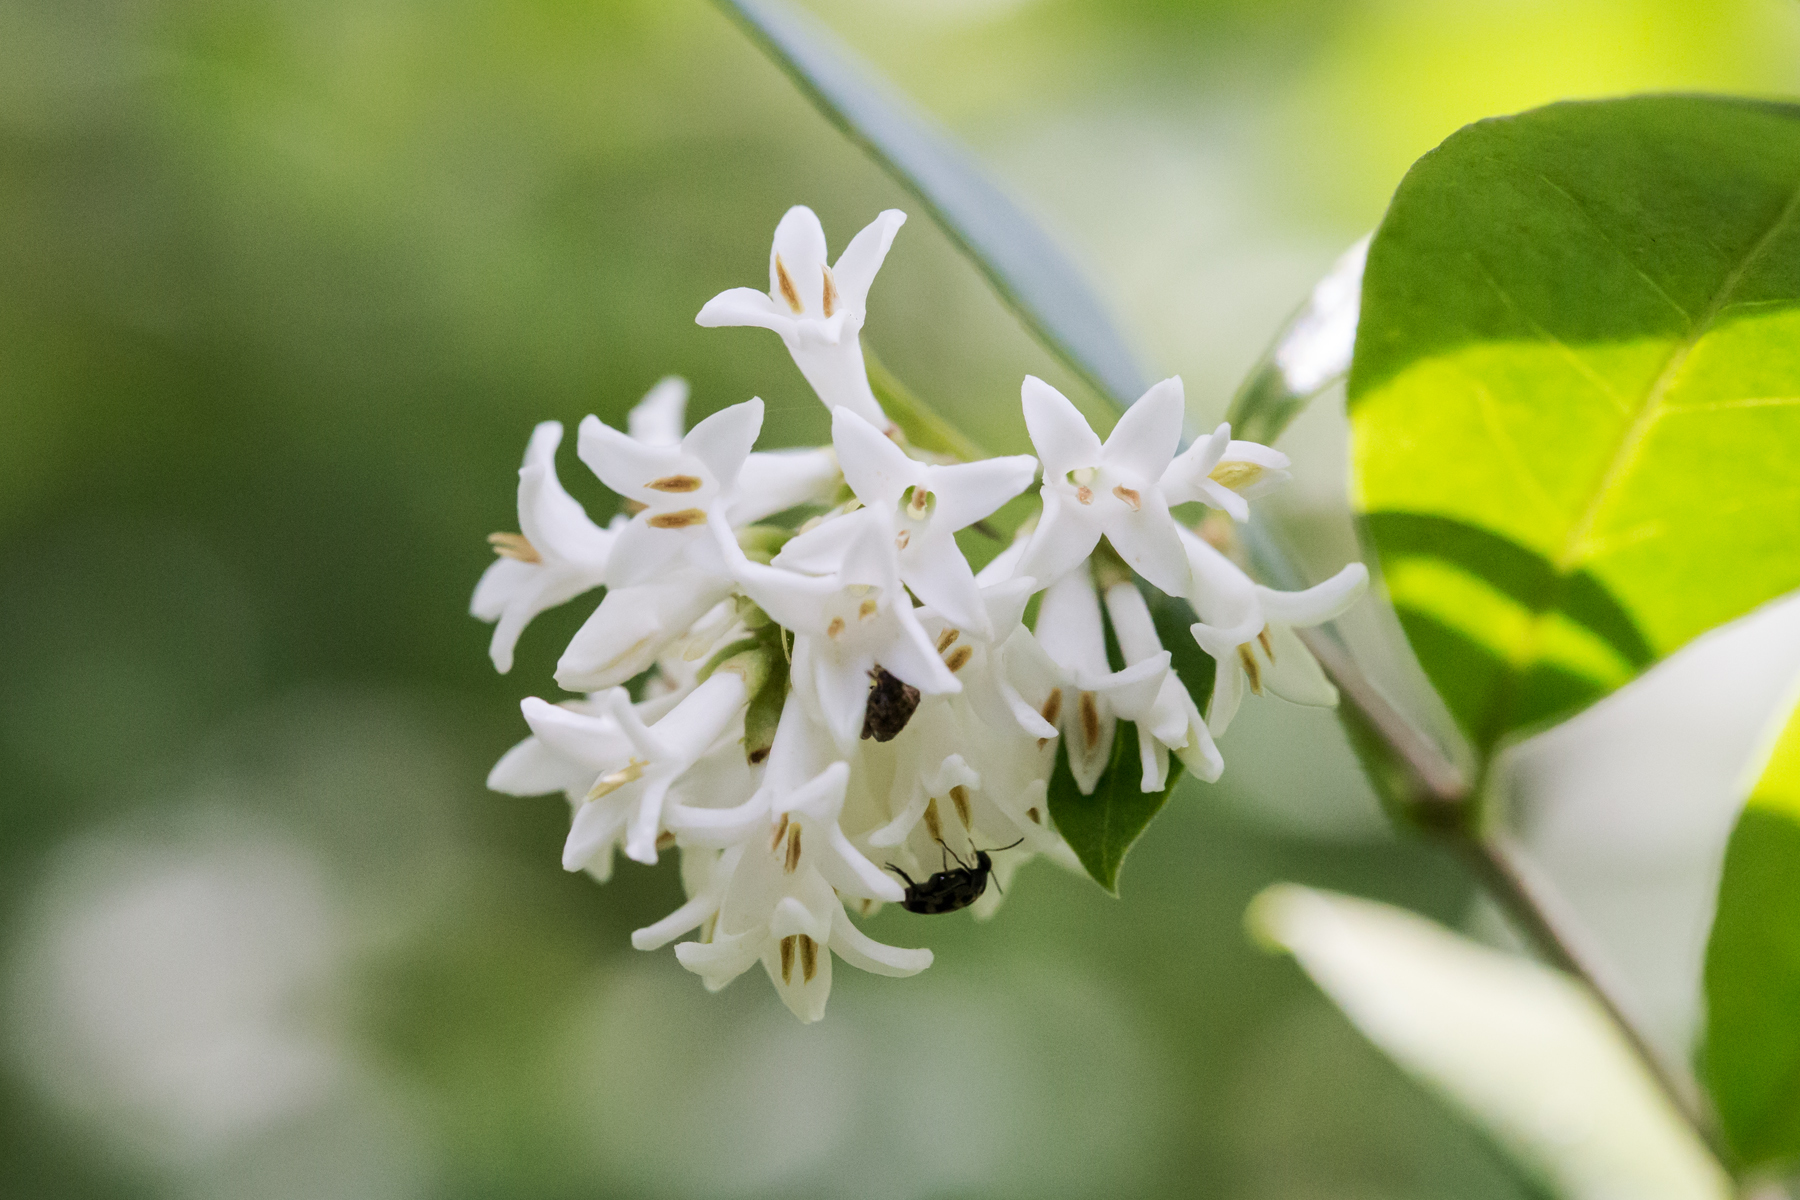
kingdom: Plantae
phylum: Tracheophyta
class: Magnoliopsida
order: Lamiales
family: Oleaceae
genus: Ligustrum
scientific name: Ligustrum obtusifolium
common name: Border privet
